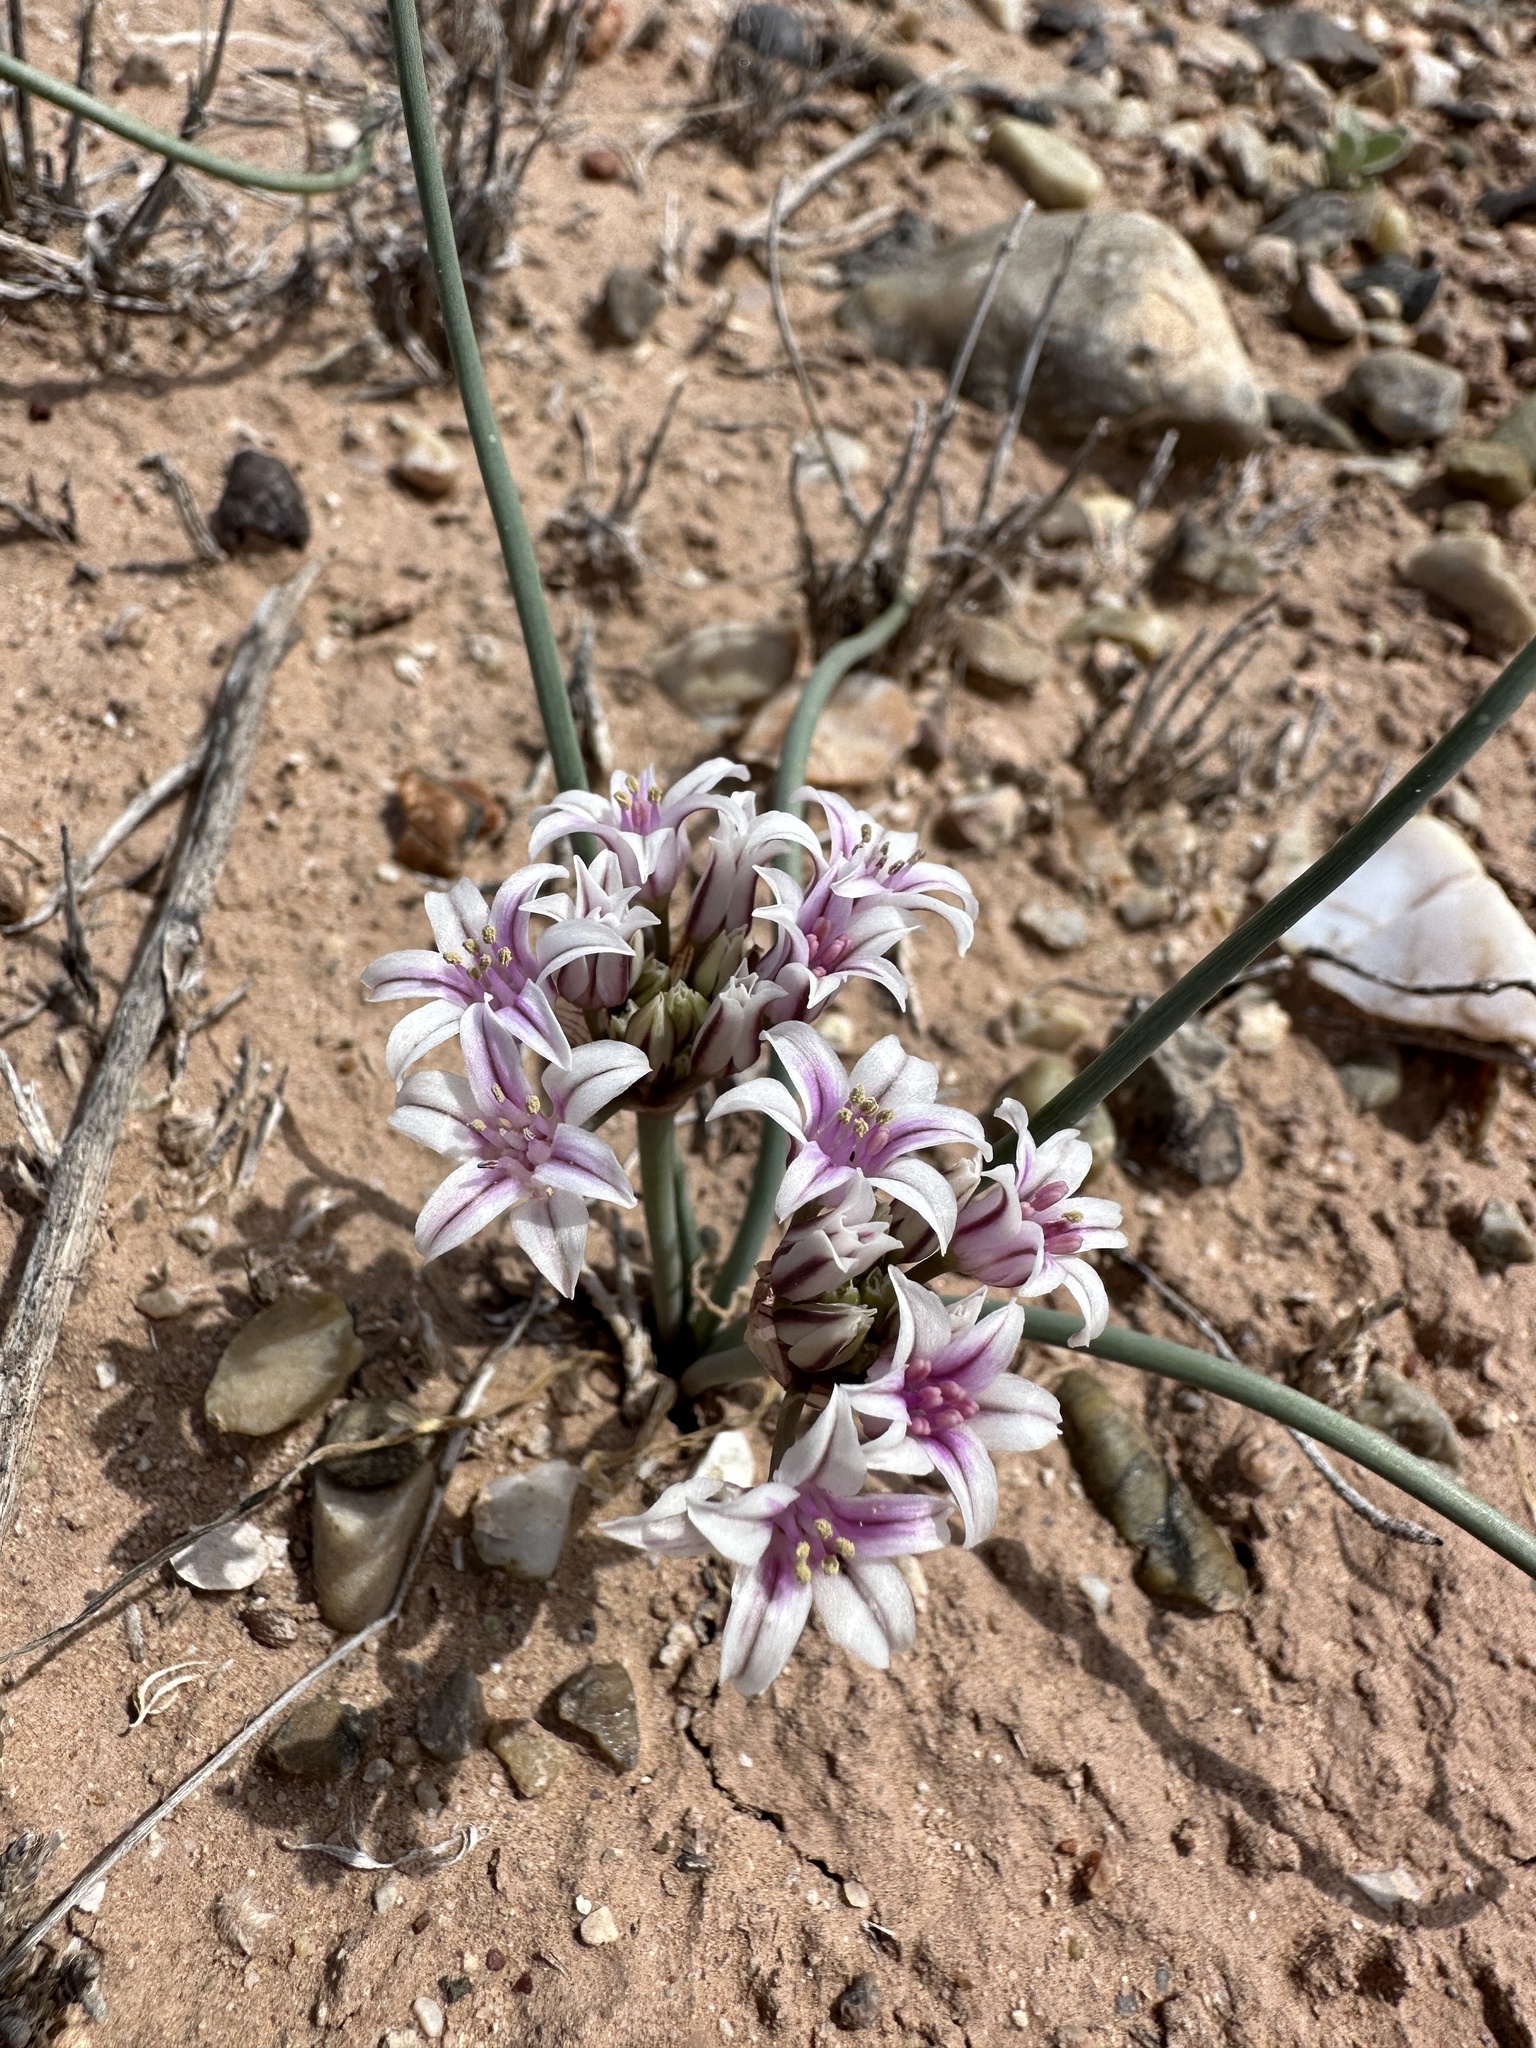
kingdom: Plantae
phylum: Tracheophyta
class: Liliopsida
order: Asparagales
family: Amaryllidaceae
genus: Allium
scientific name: Allium macropetalum
